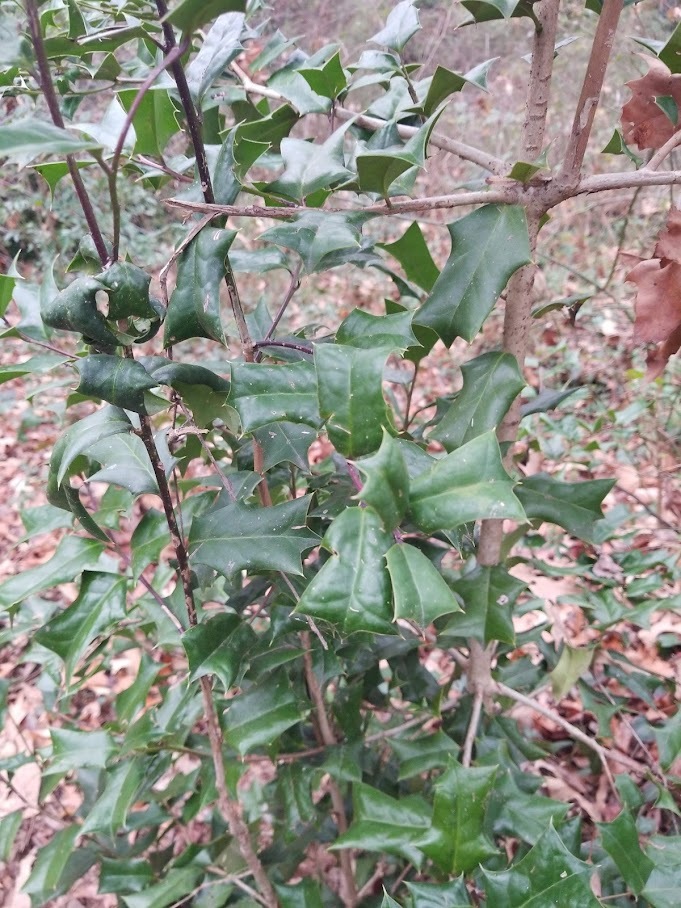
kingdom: Plantae
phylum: Tracheophyta
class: Magnoliopsida
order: Aquifoliales
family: Aquifoliaceae
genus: Ilex
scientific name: Ilex cornuta
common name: Chinese holly
